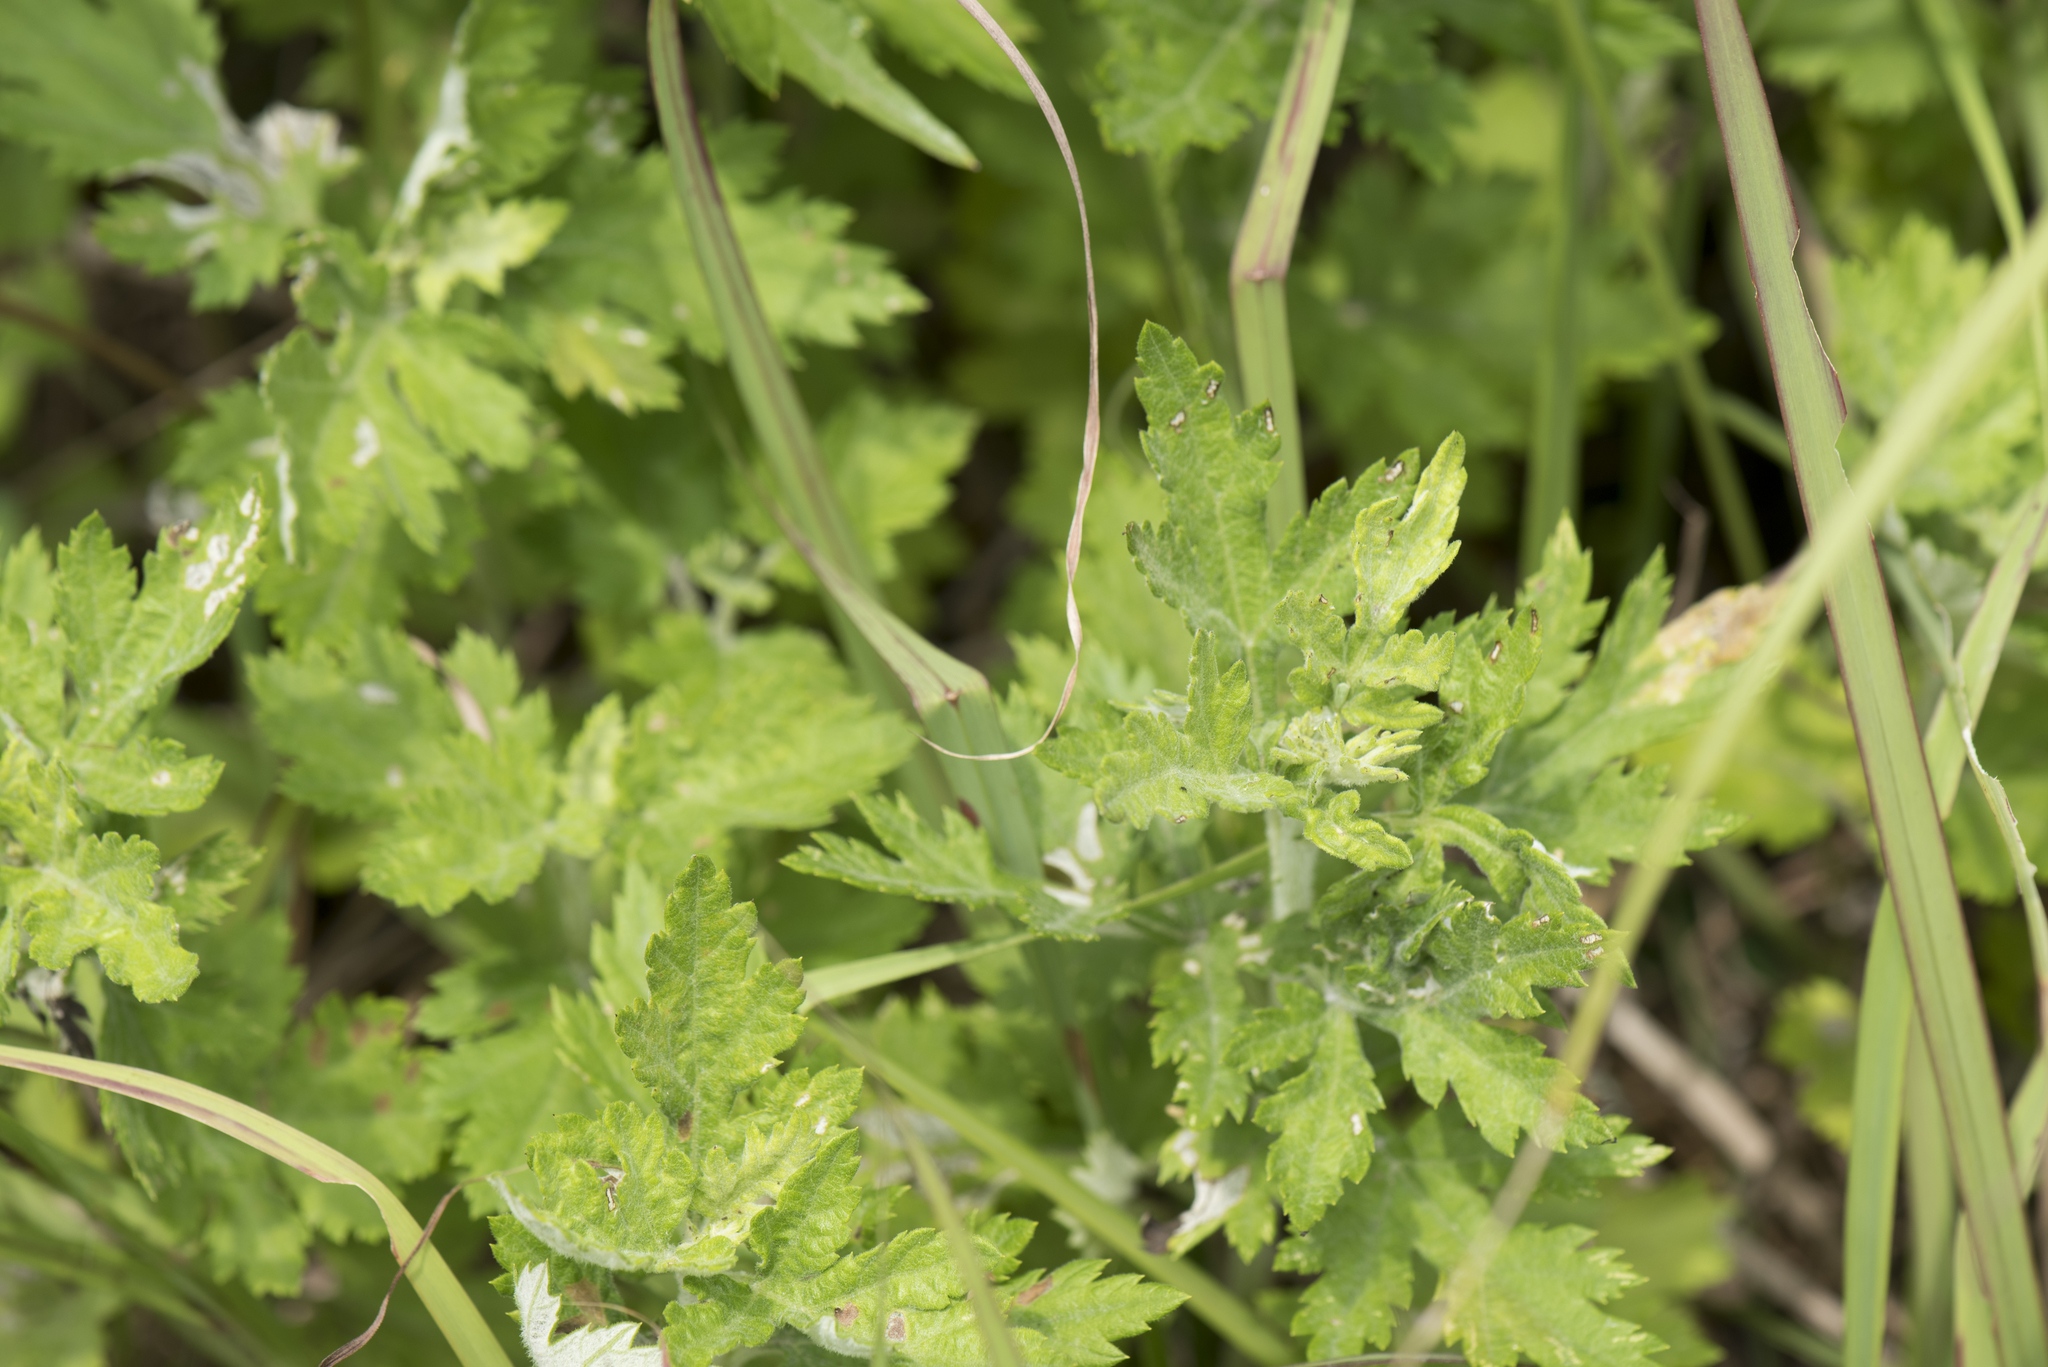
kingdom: Plantae
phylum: Tracheophyta
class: Magnoliopsida
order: Asterales
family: Asteraceae
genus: Artemisia
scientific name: Artemisia indica
